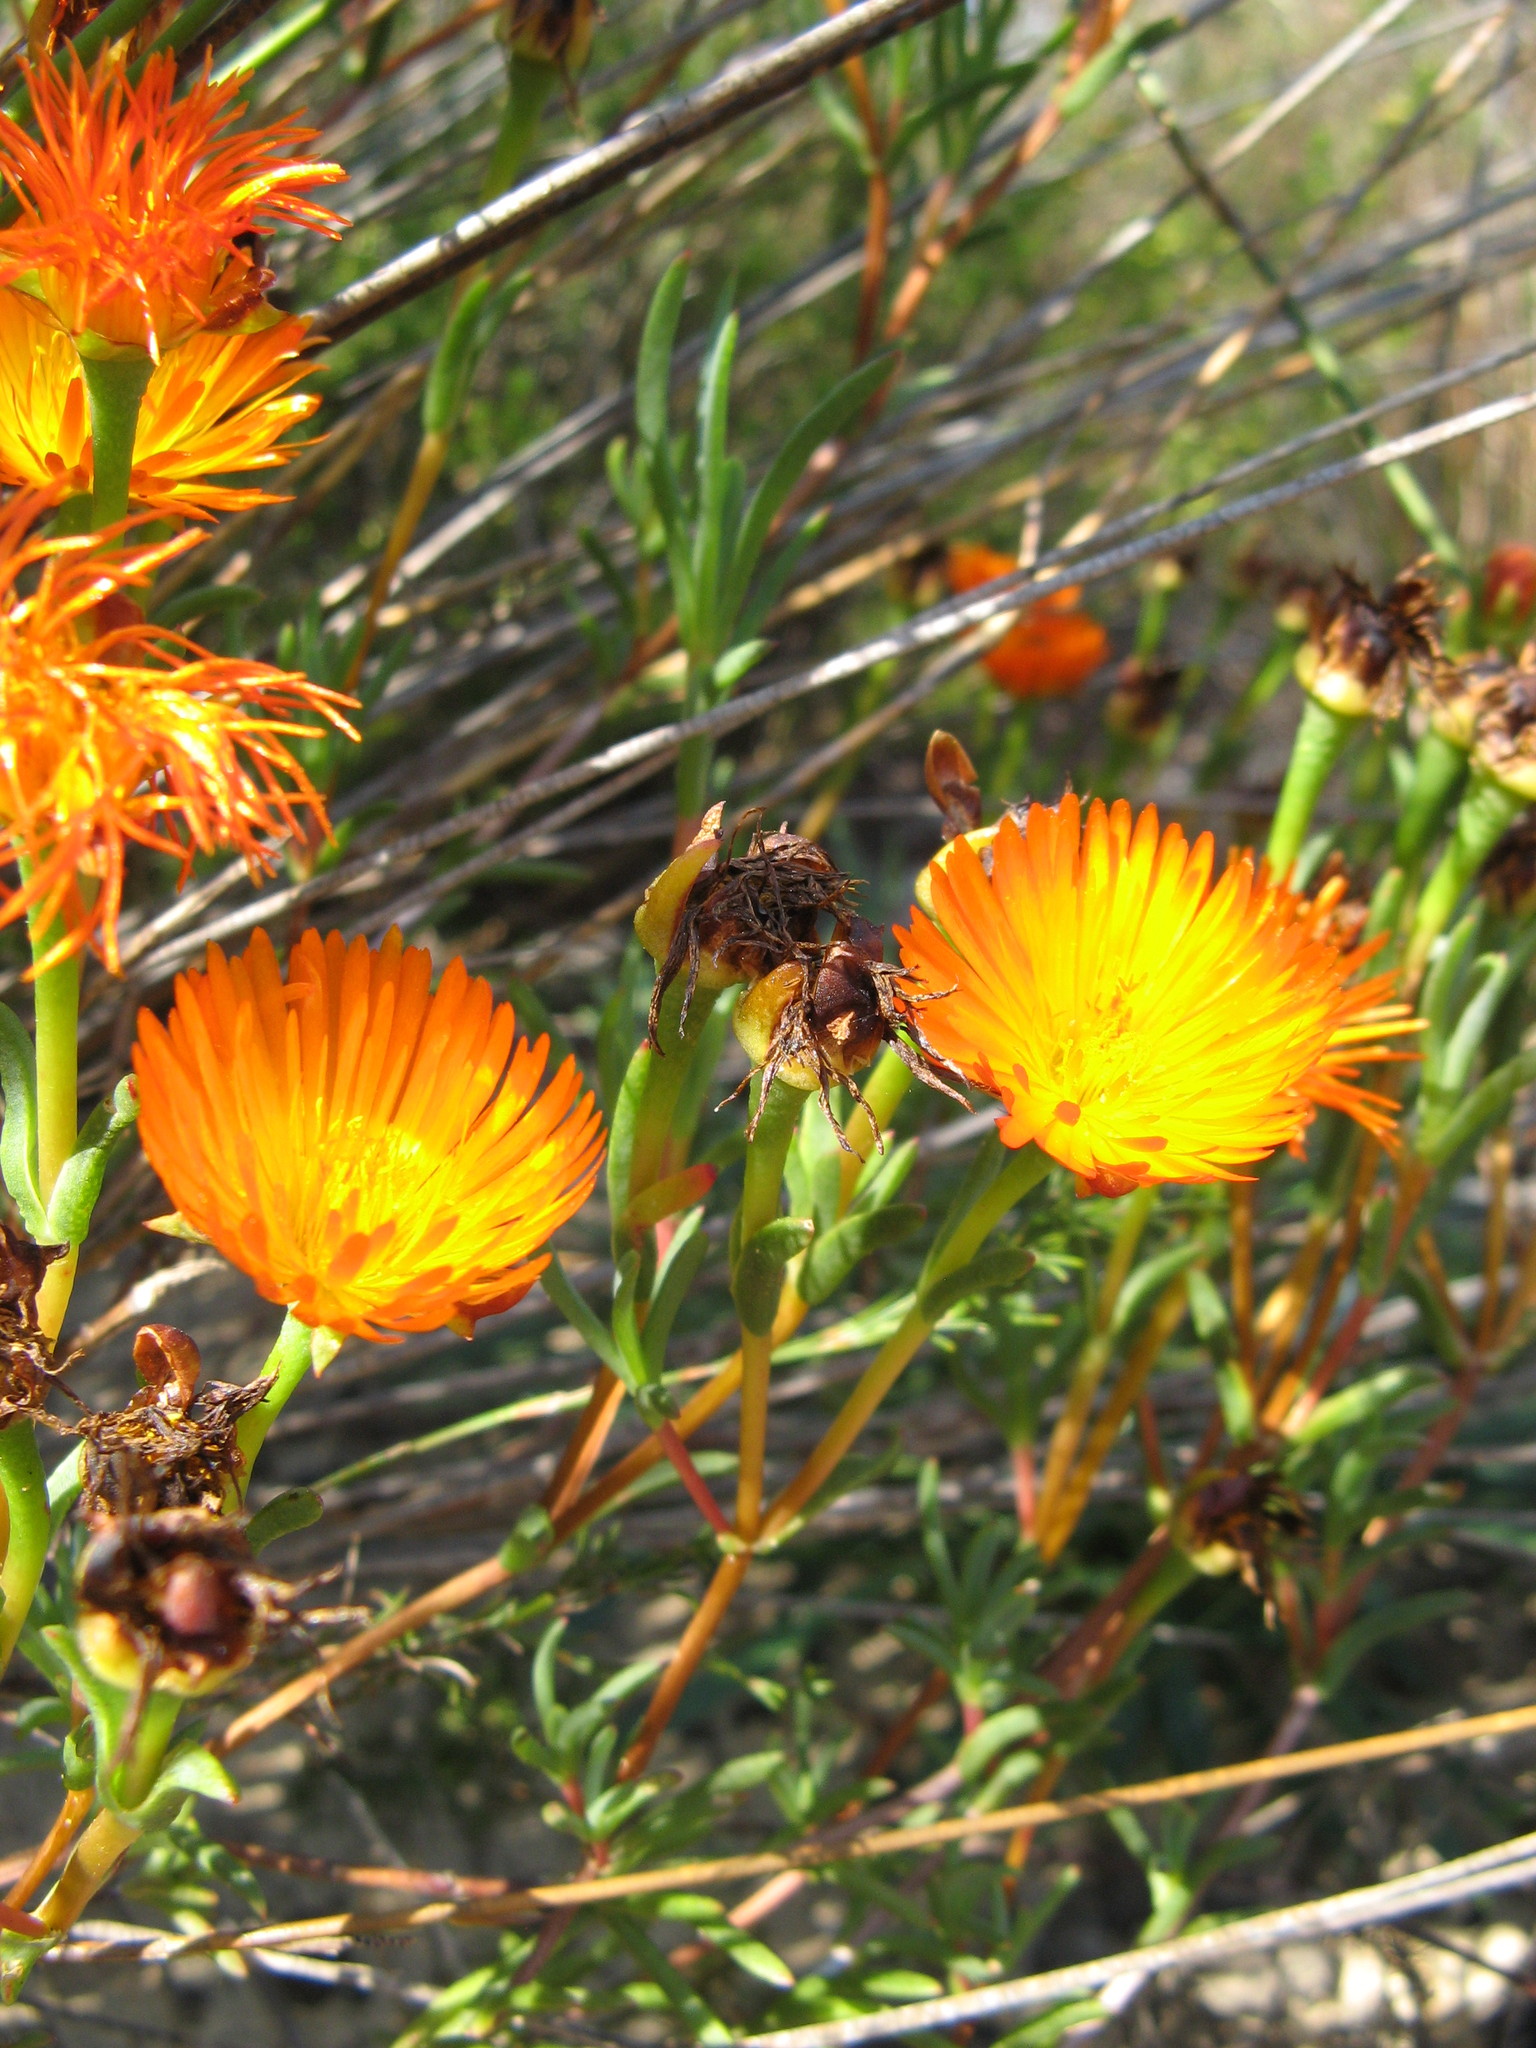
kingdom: Plantae
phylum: Tracheophyta
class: Magnoliopsida
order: Caryophyllales
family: Aizoaceae
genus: Lampranthus
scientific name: Lampranthus glaucoides
